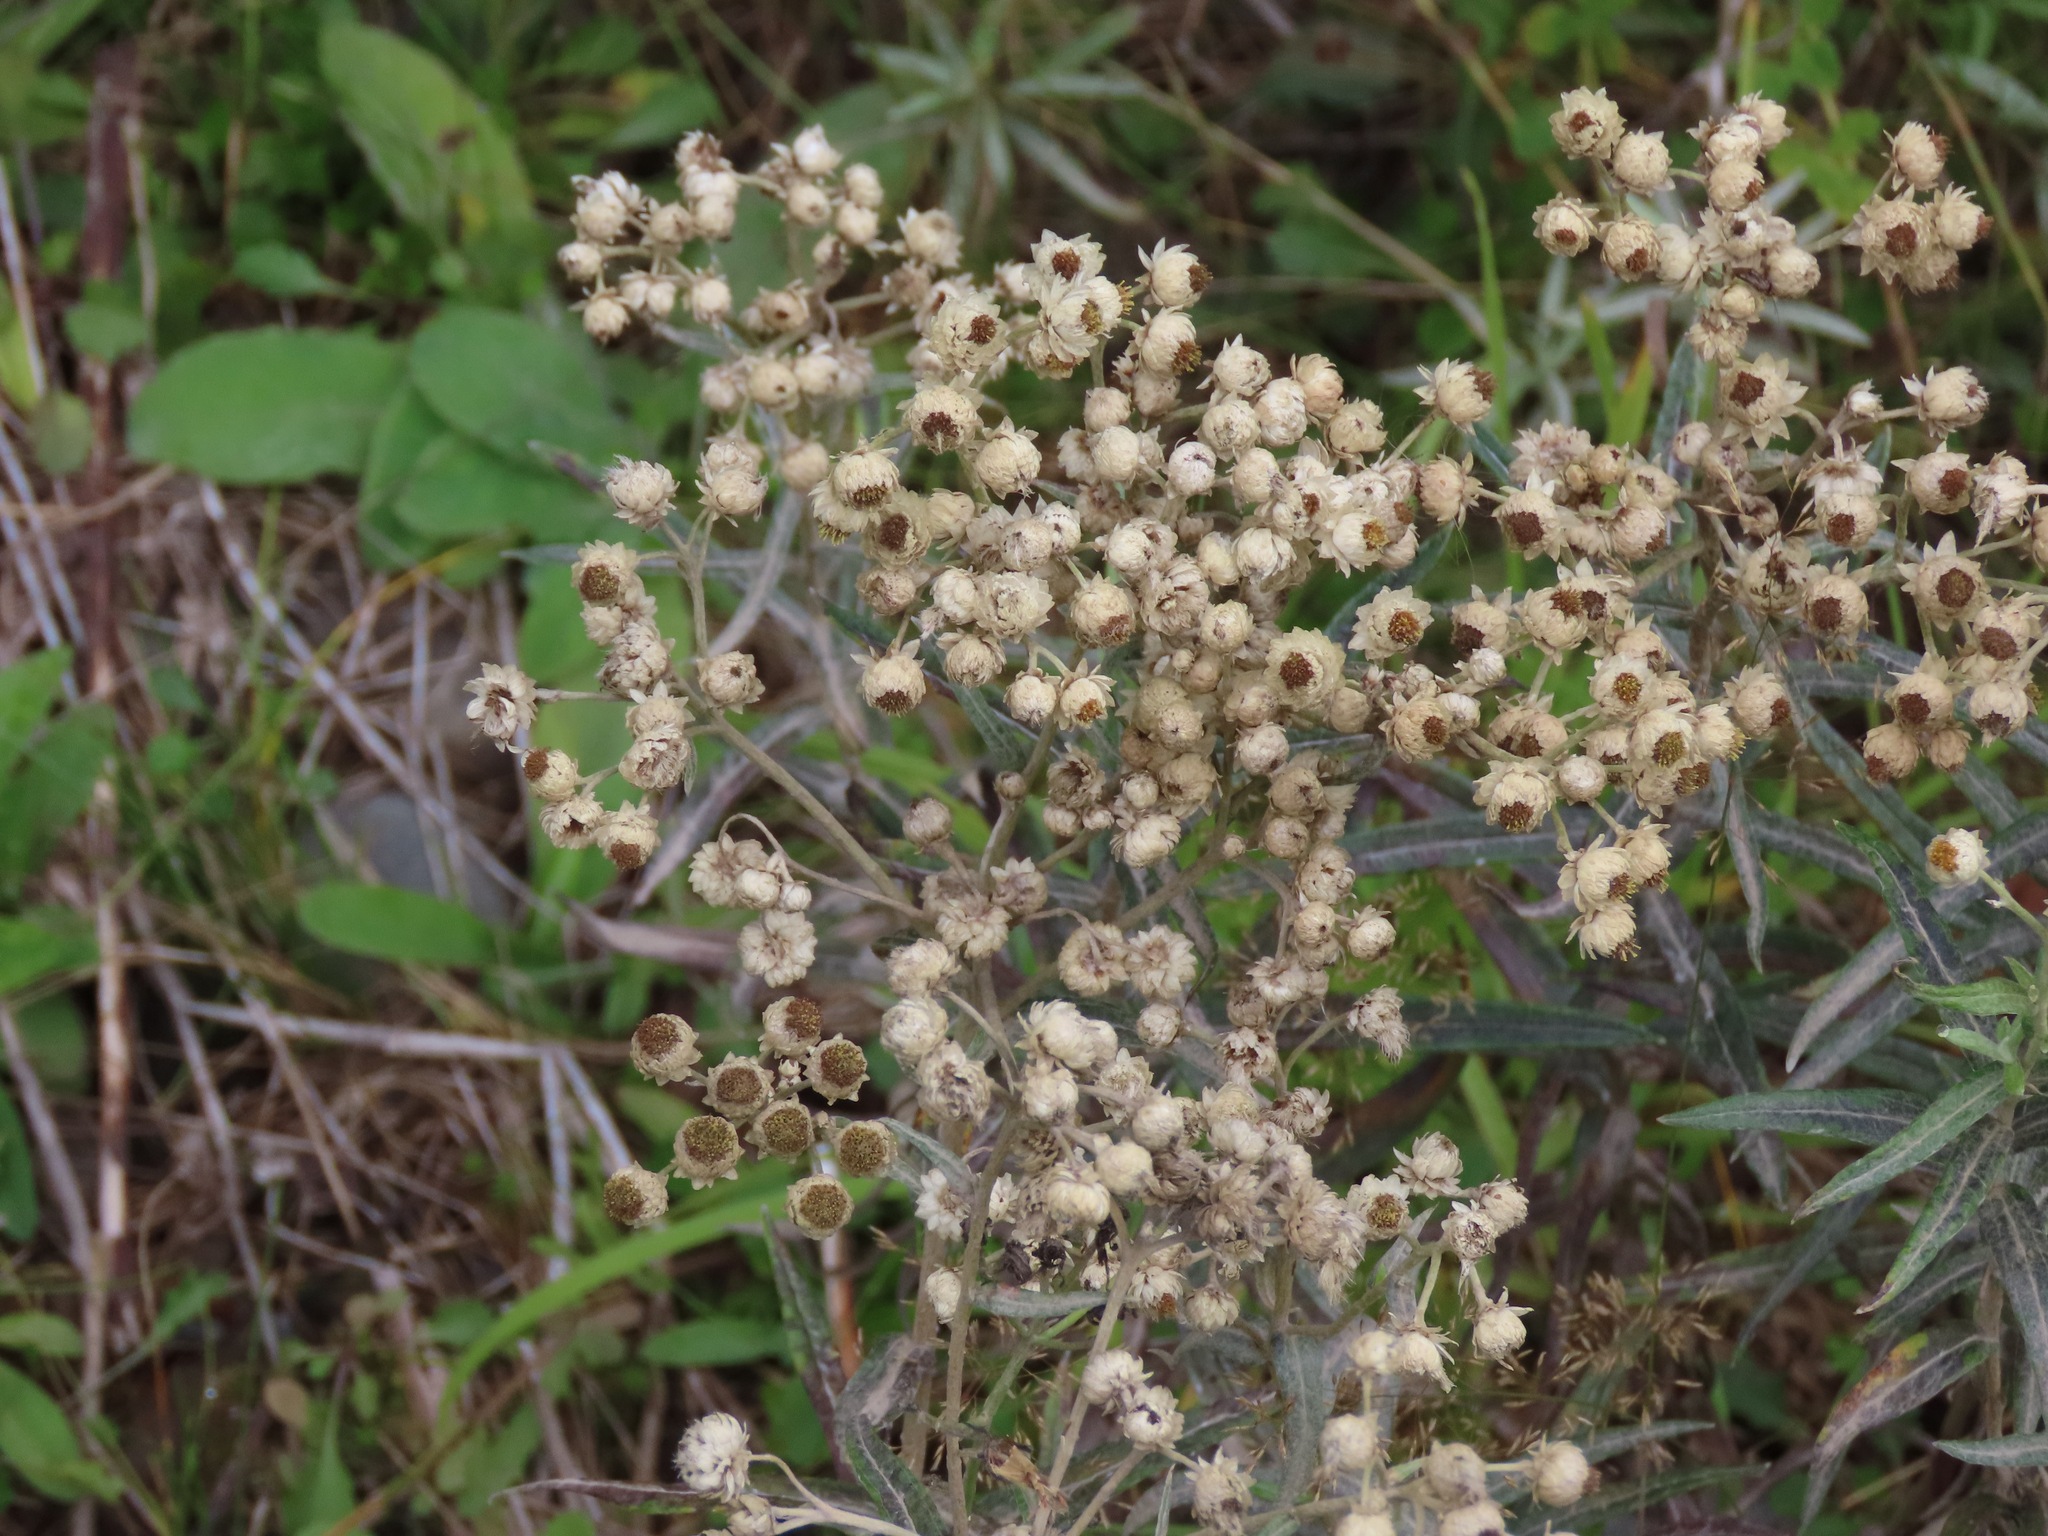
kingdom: Plantae
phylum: Tracheophyta
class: Magnoliopsida
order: Asterales
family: Asteraceae
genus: Anaphalis
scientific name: Anaphalis margaritacea
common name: Pearly everlasting
